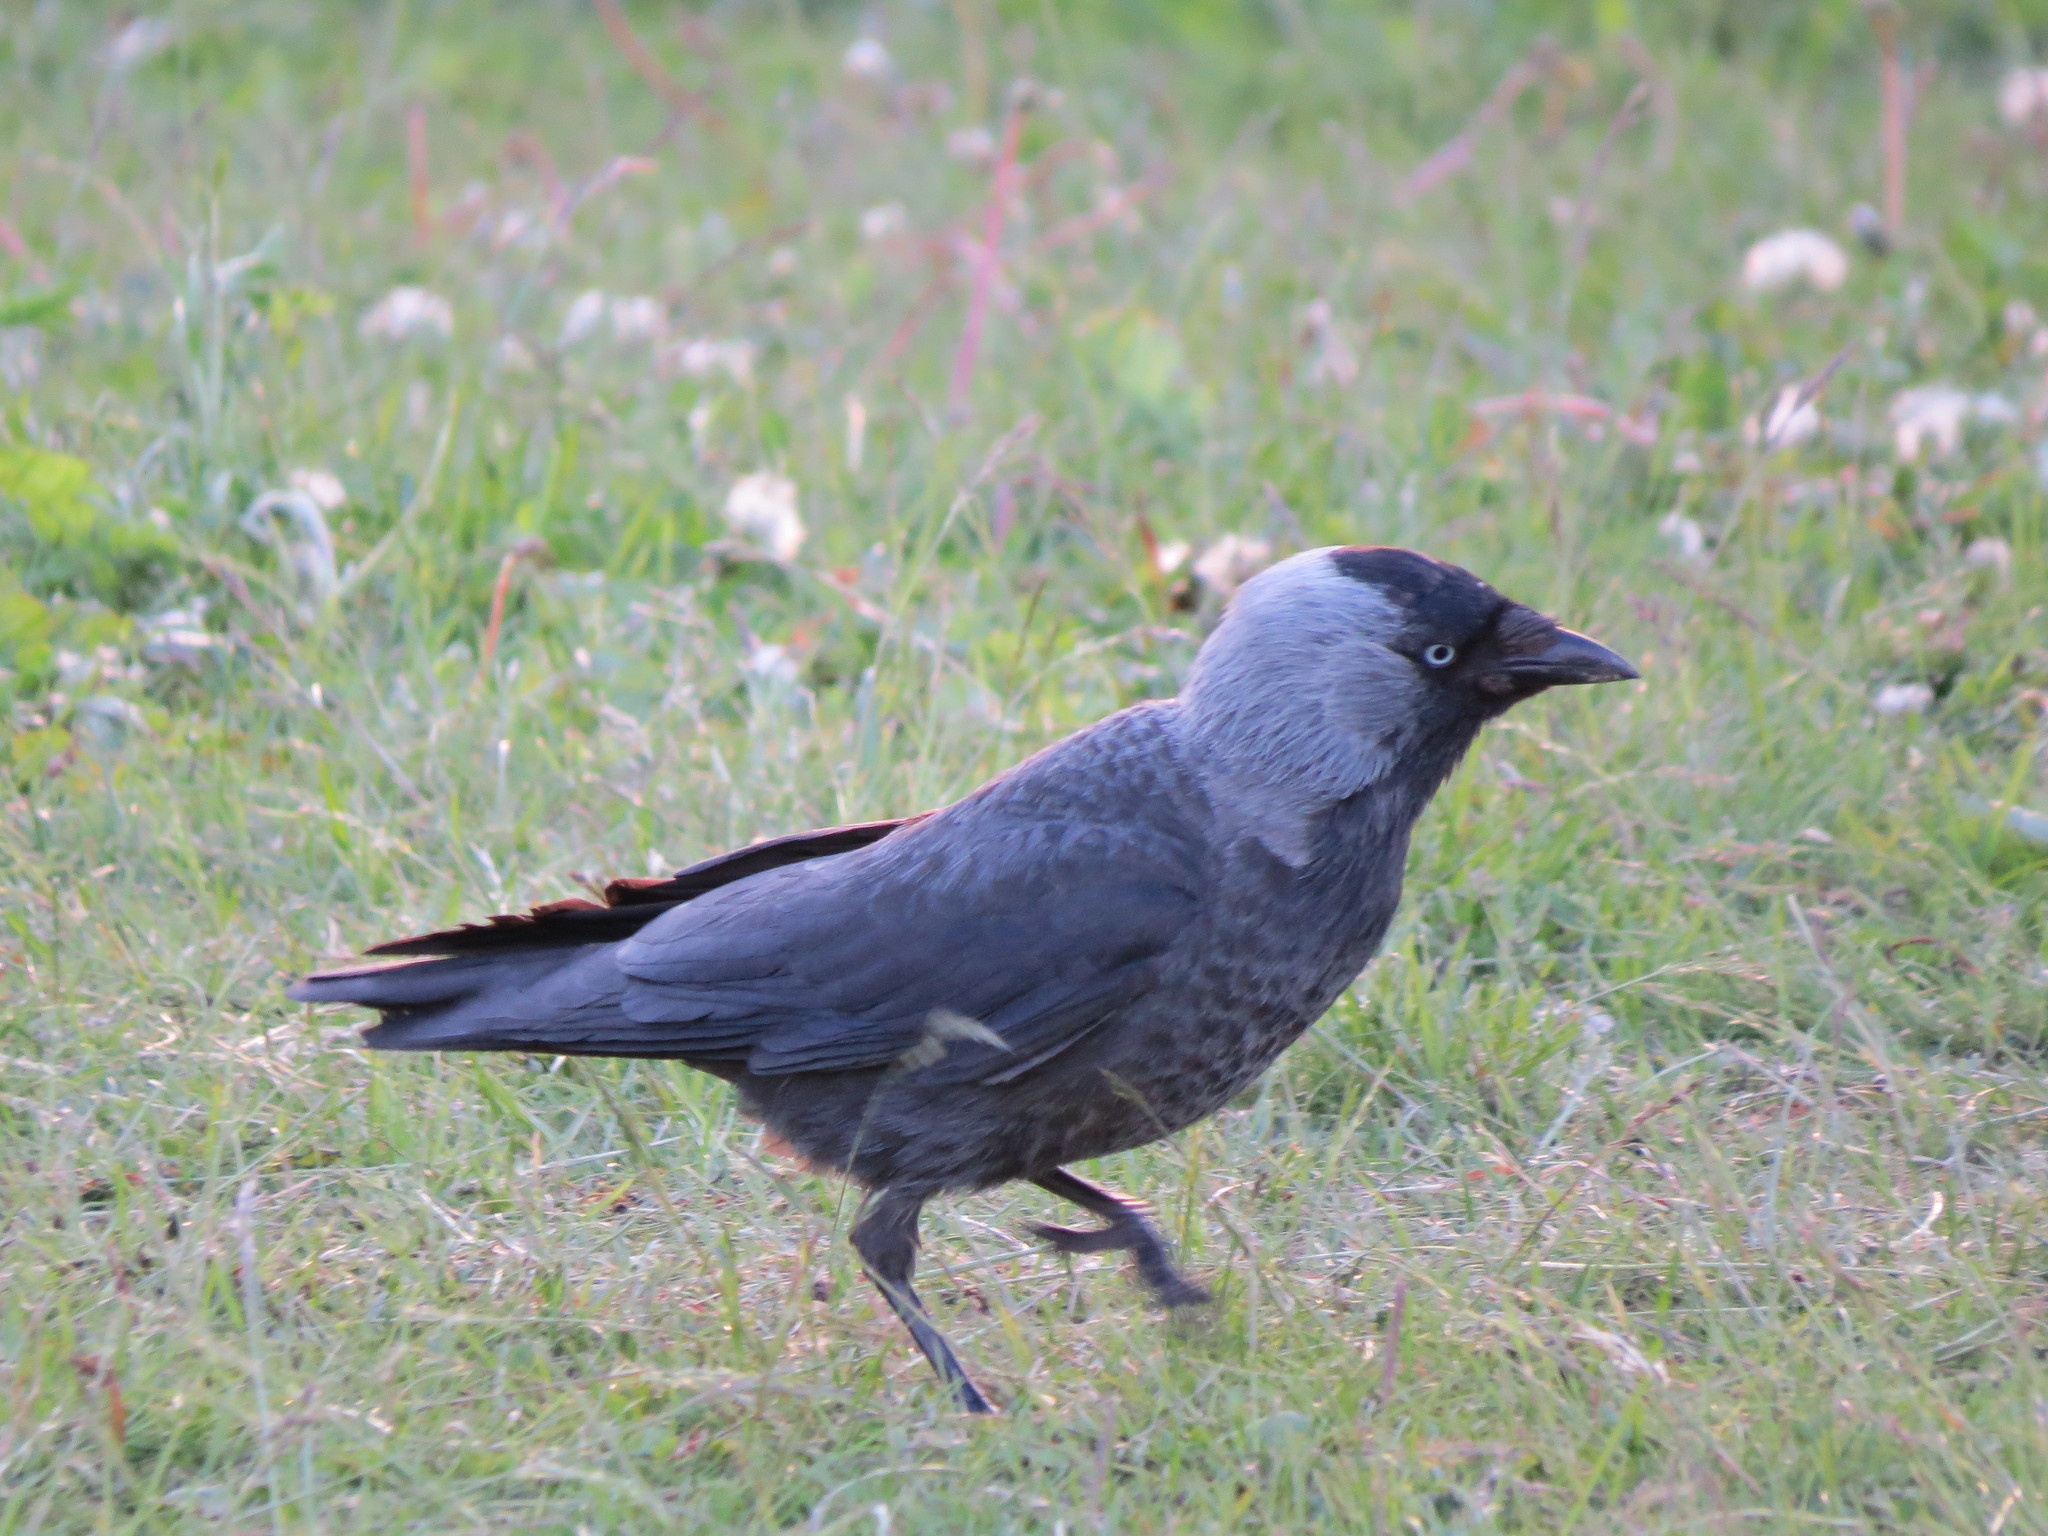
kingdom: Animalia
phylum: Chordata
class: Aves
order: Passeriformes
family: Corvidae
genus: Coloeus
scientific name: Coloeus monedula
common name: Western jackdaw
